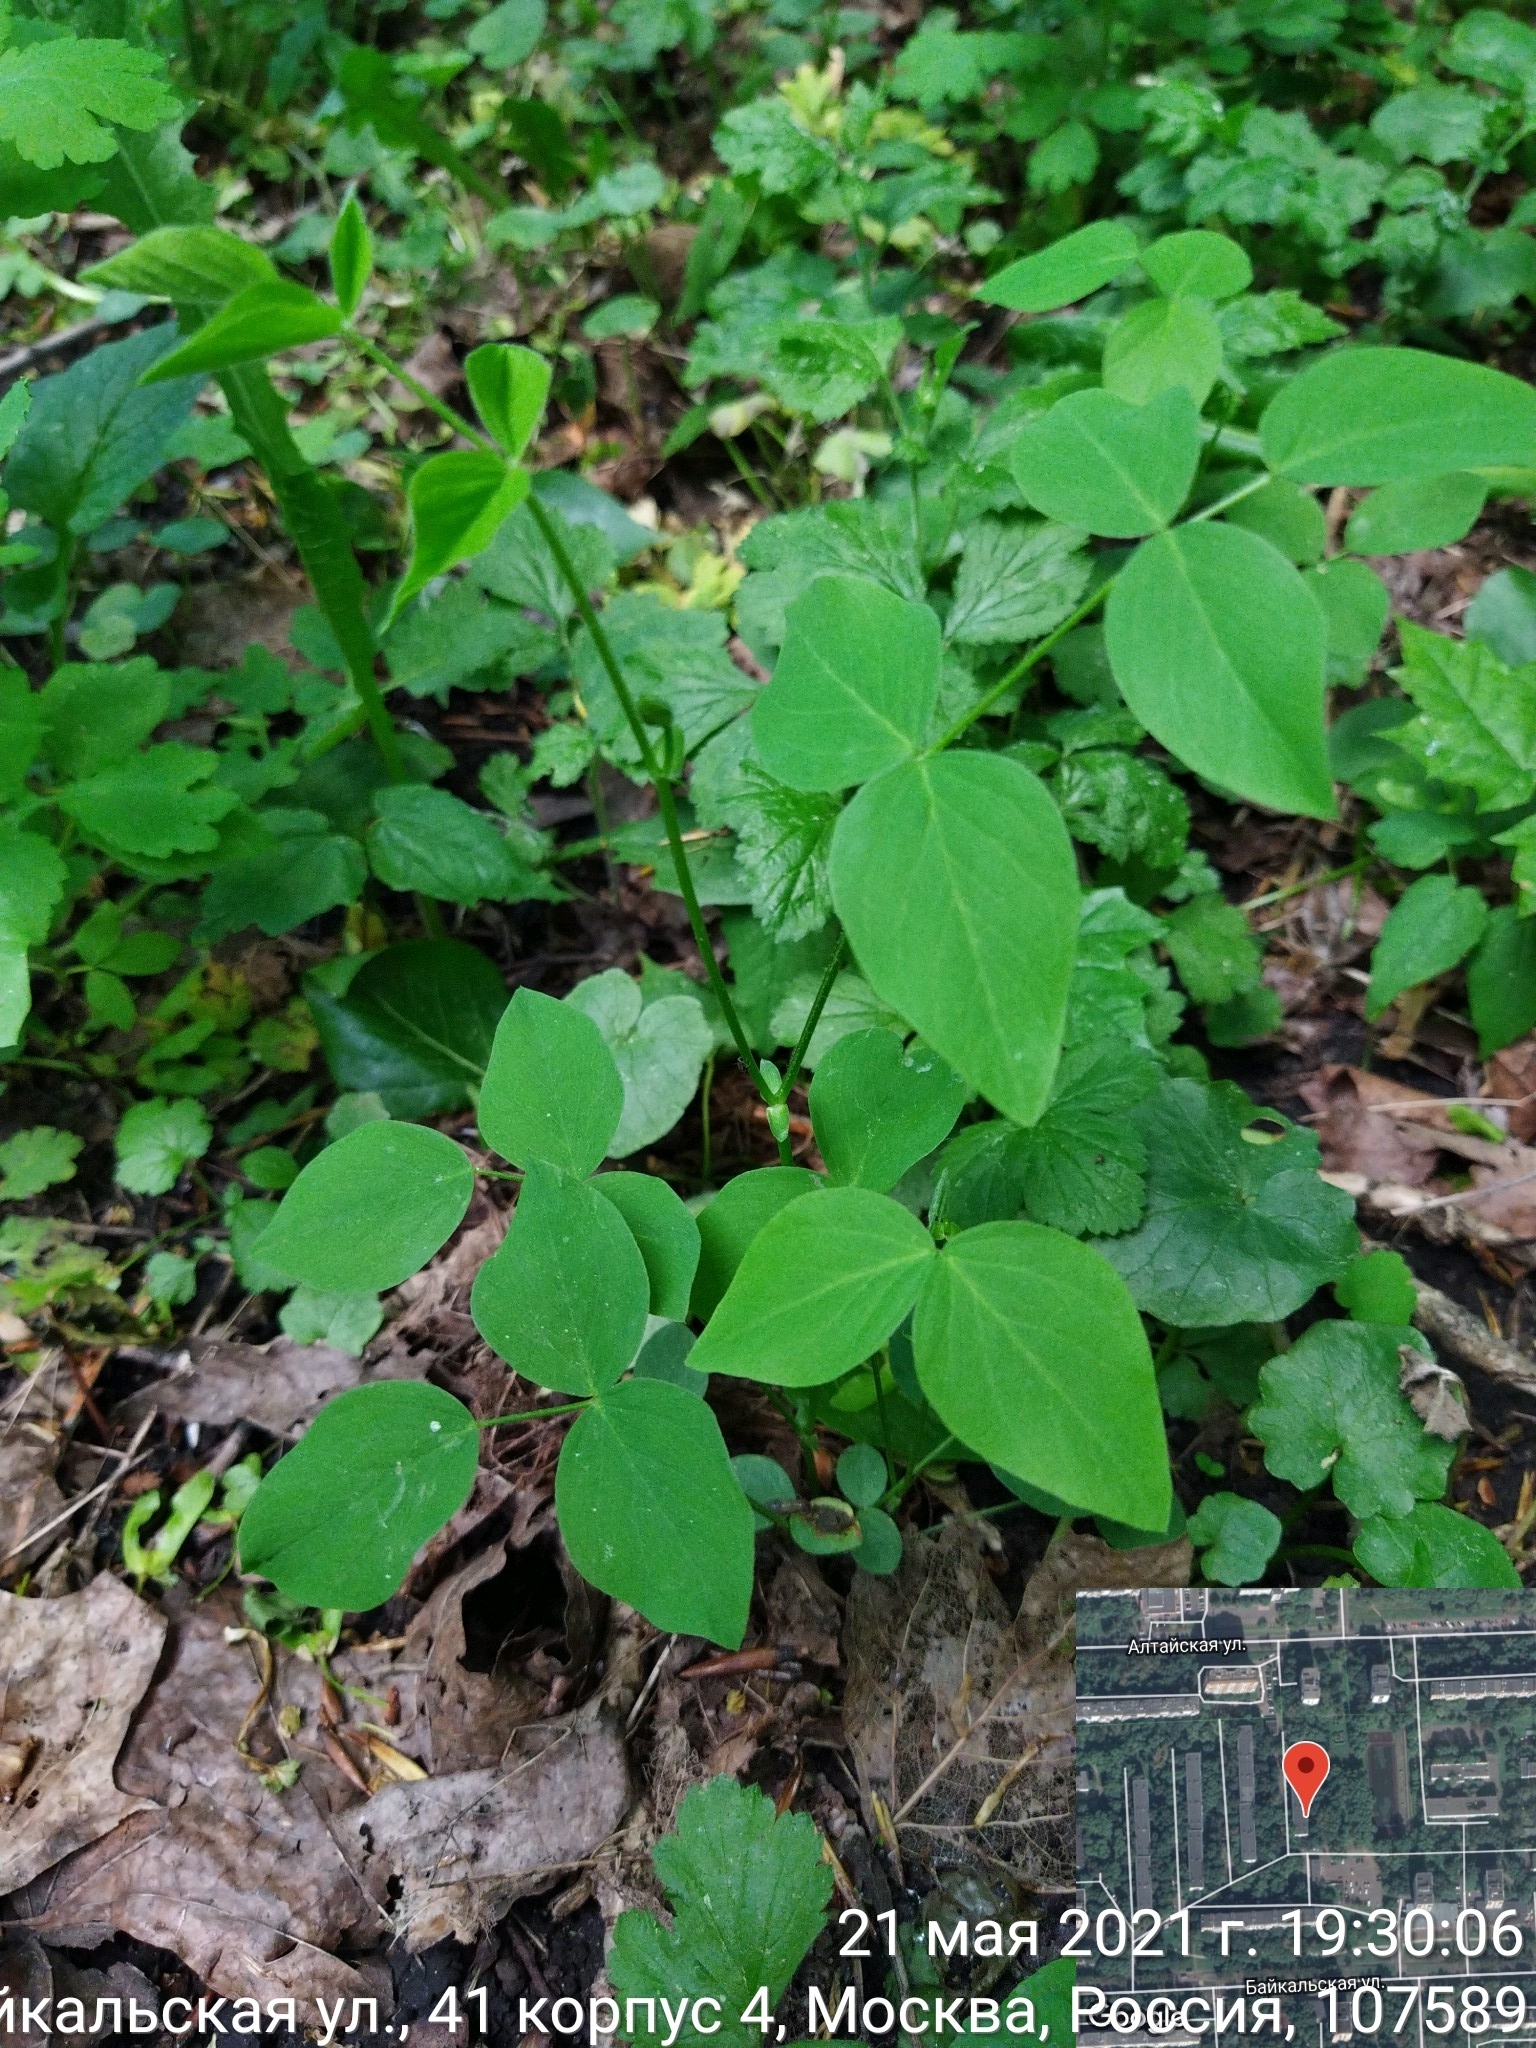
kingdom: Plantae
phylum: Tracheophyta
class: Magnoliopsida
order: Fabales
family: Fabaceae
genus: Galega
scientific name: Galega orientalis
